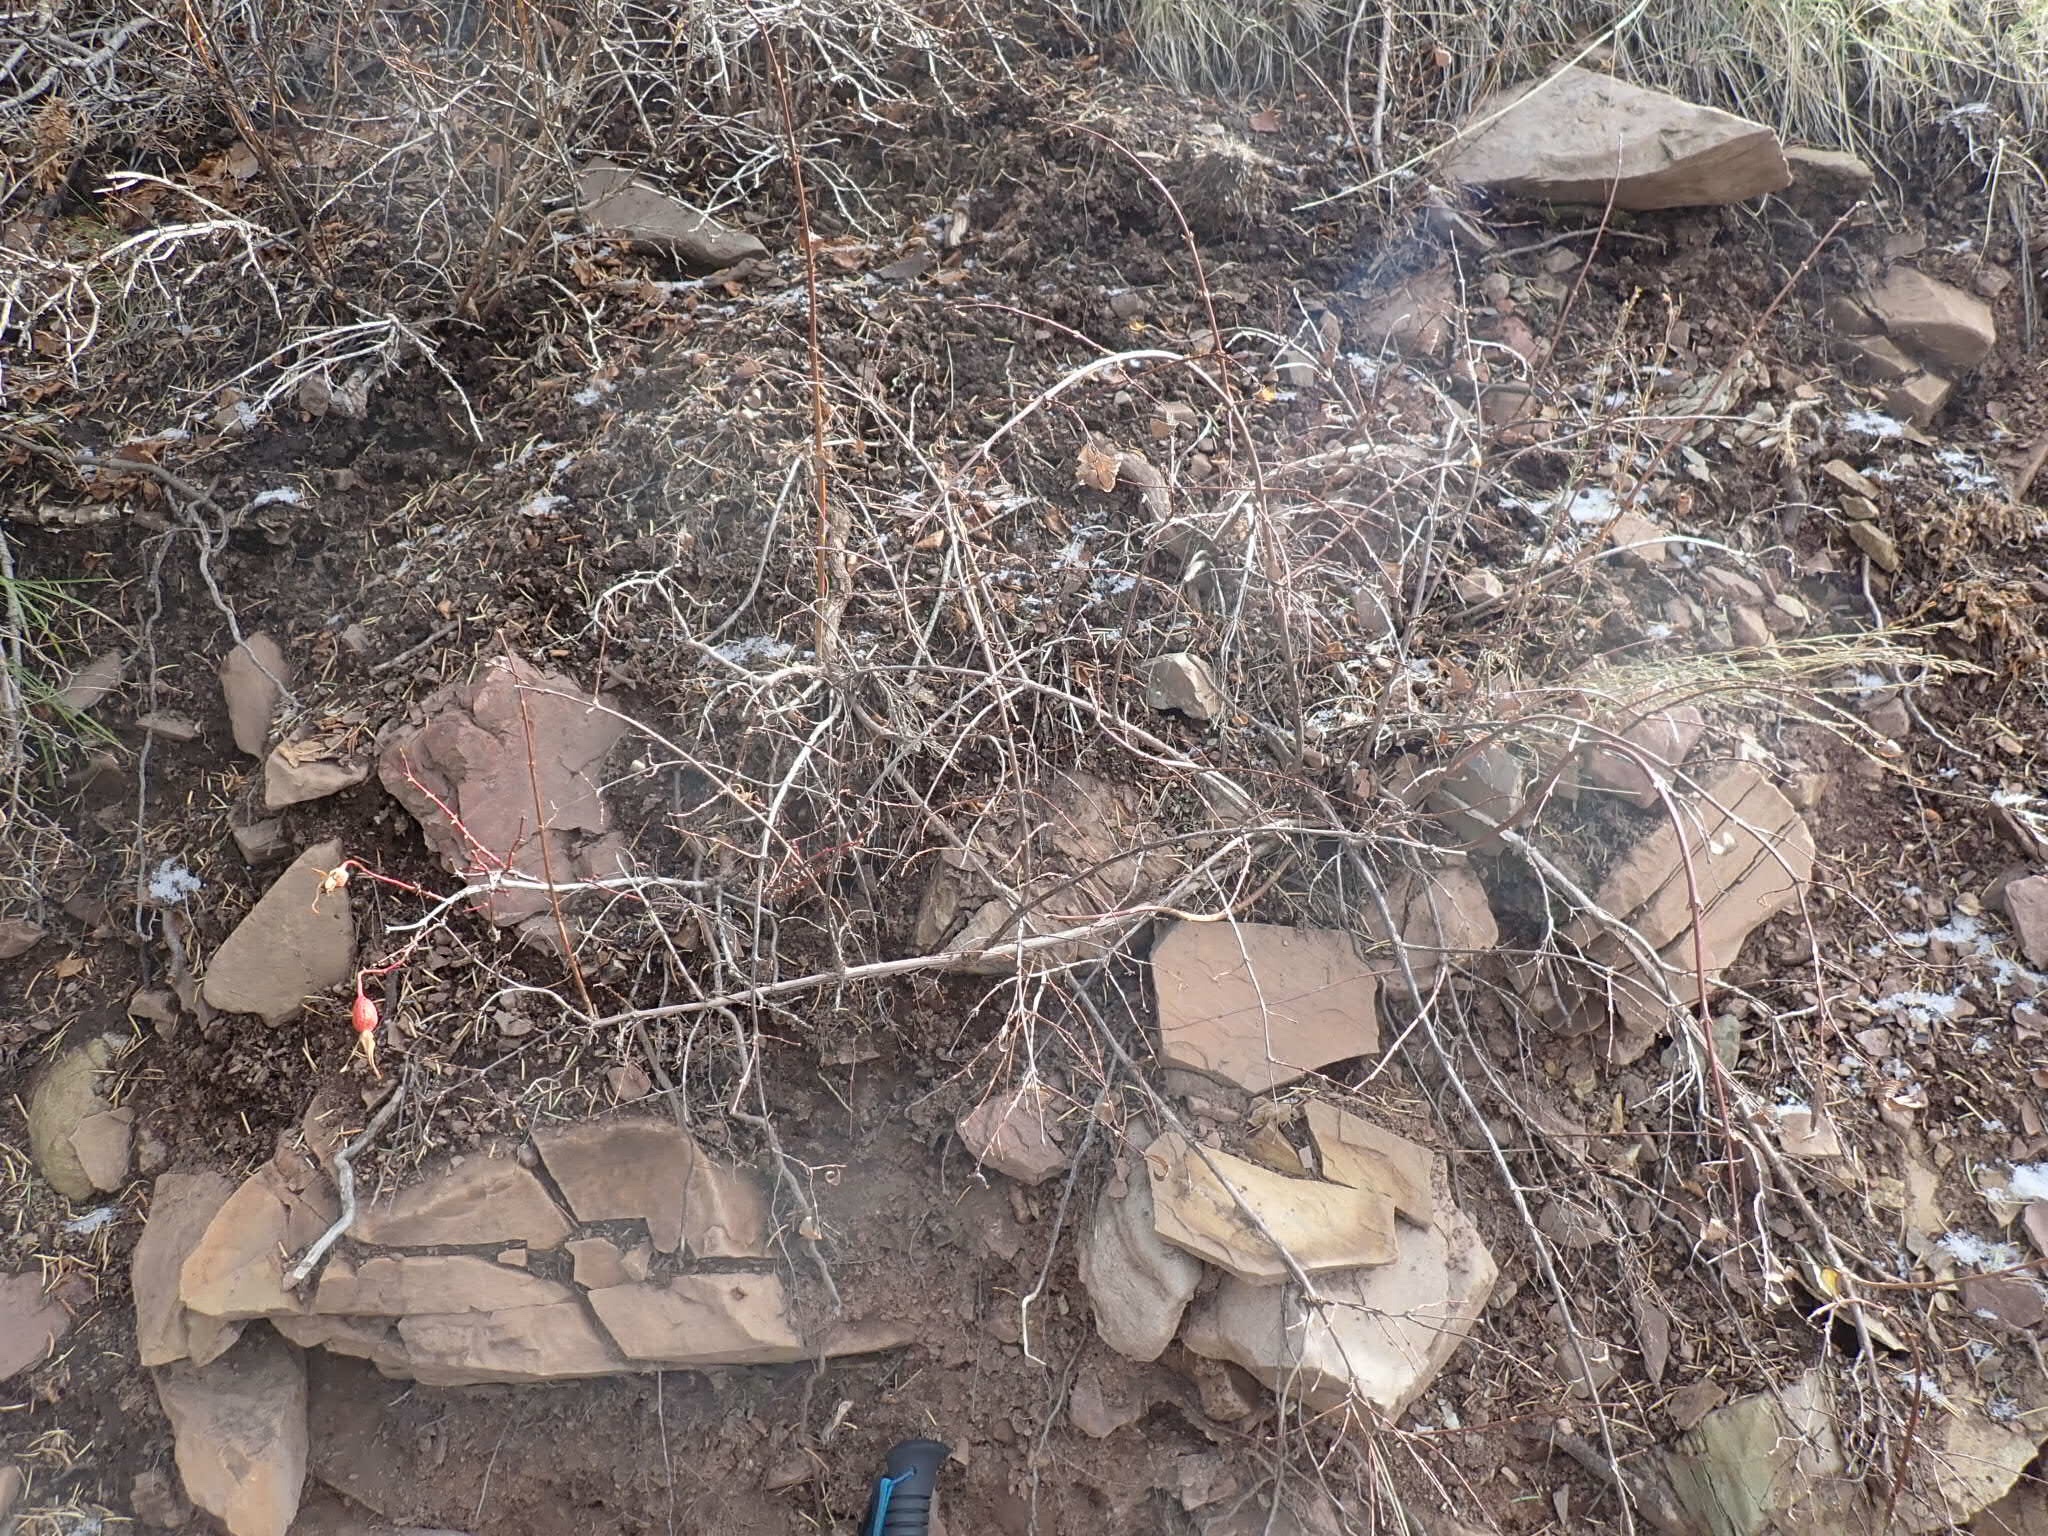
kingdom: Plantae
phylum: Tracheophyta
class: Magnoliopsida
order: Rosales
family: Rosaceae
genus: Rosa
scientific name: Rosa woodsii
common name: Woods's rose
